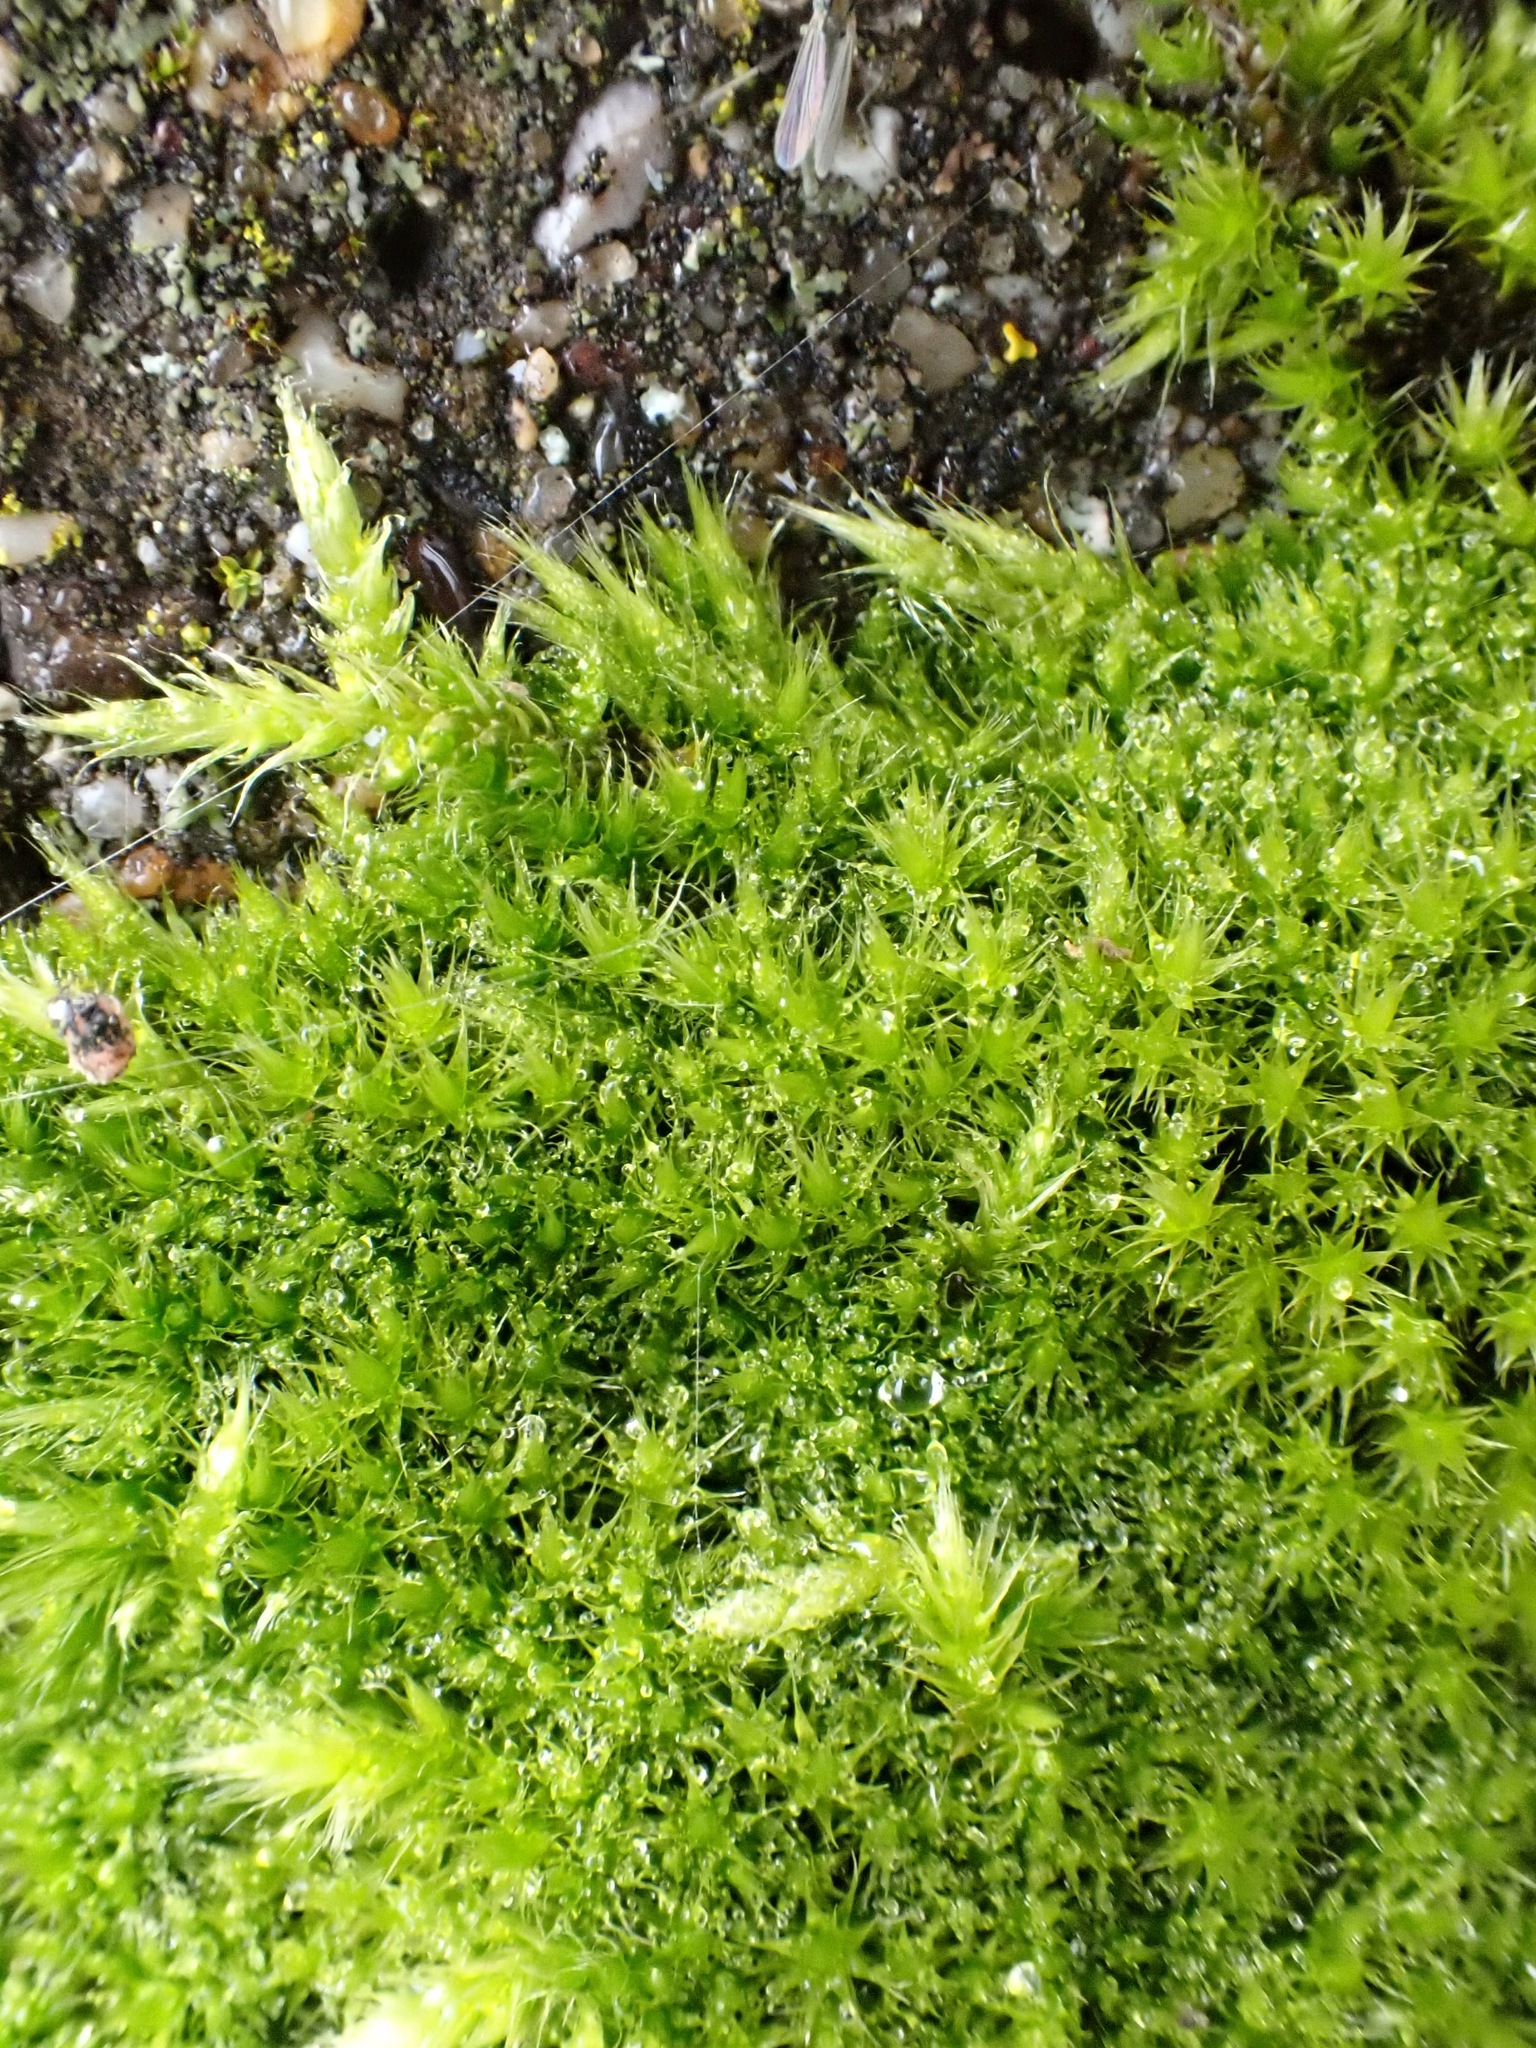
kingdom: Plantae
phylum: Bryophyta
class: Bryopsida
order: Hypnales
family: Brachytheciaceae
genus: Homalothecium
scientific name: Homalothecium sericeum
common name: Silky wall feather-moss
